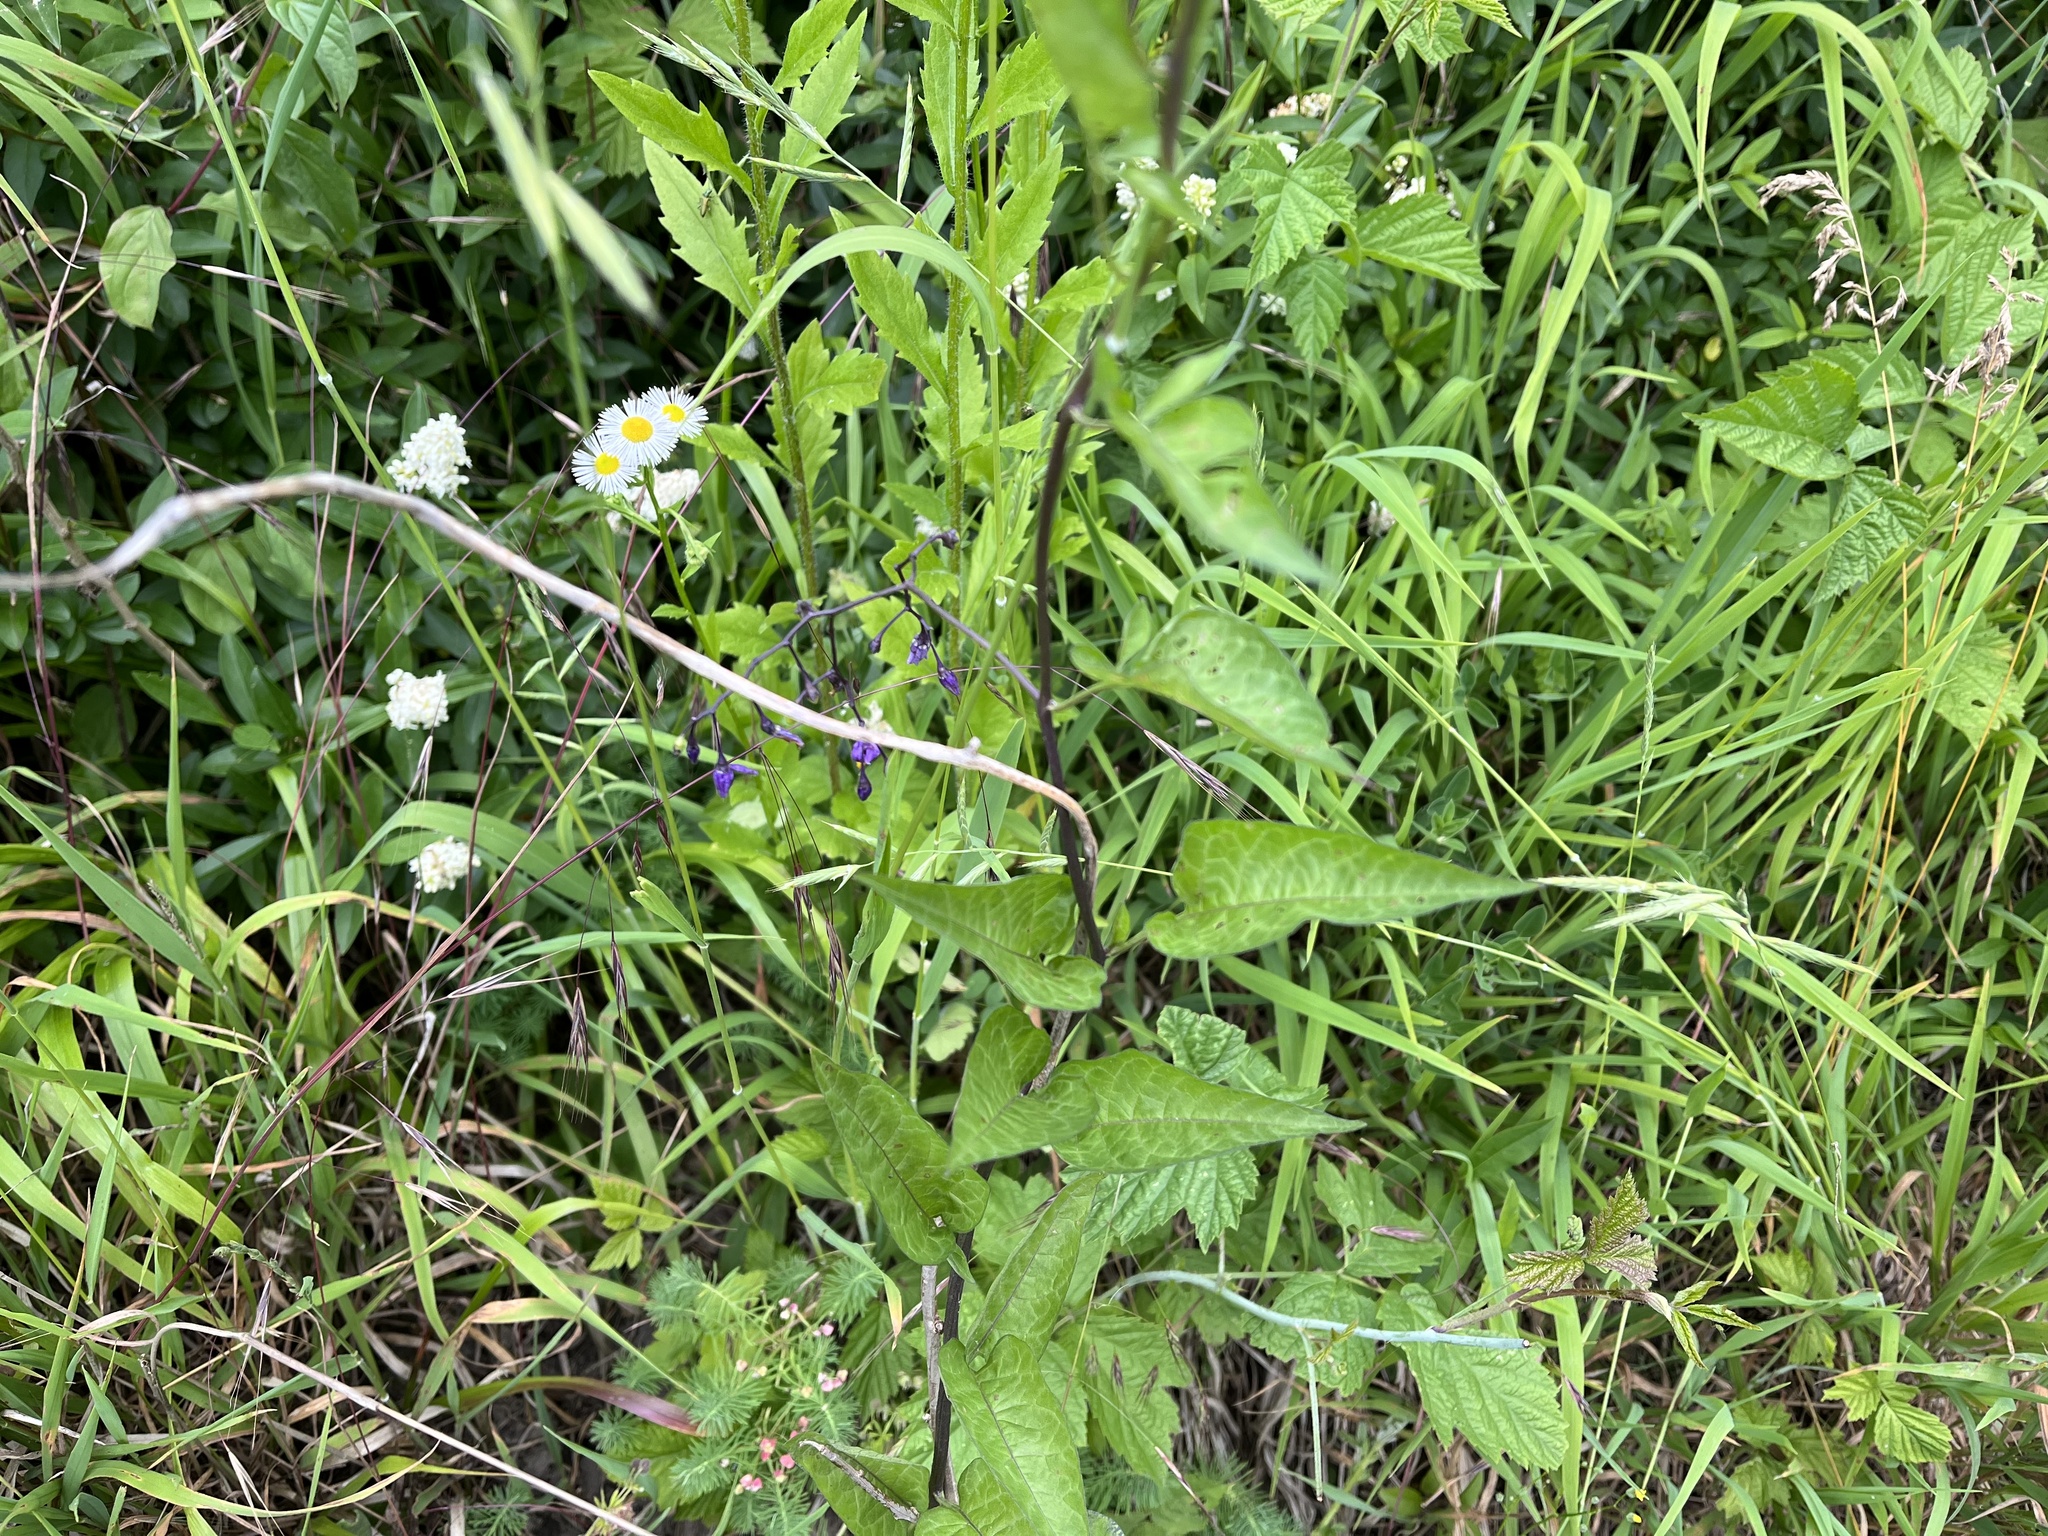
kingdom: Plantae
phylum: Tracheophyta
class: Magnoliopsida
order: Solanales
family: Solanaceae
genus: Solanum
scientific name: Solanum dulcamara
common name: Climbing nightshade
